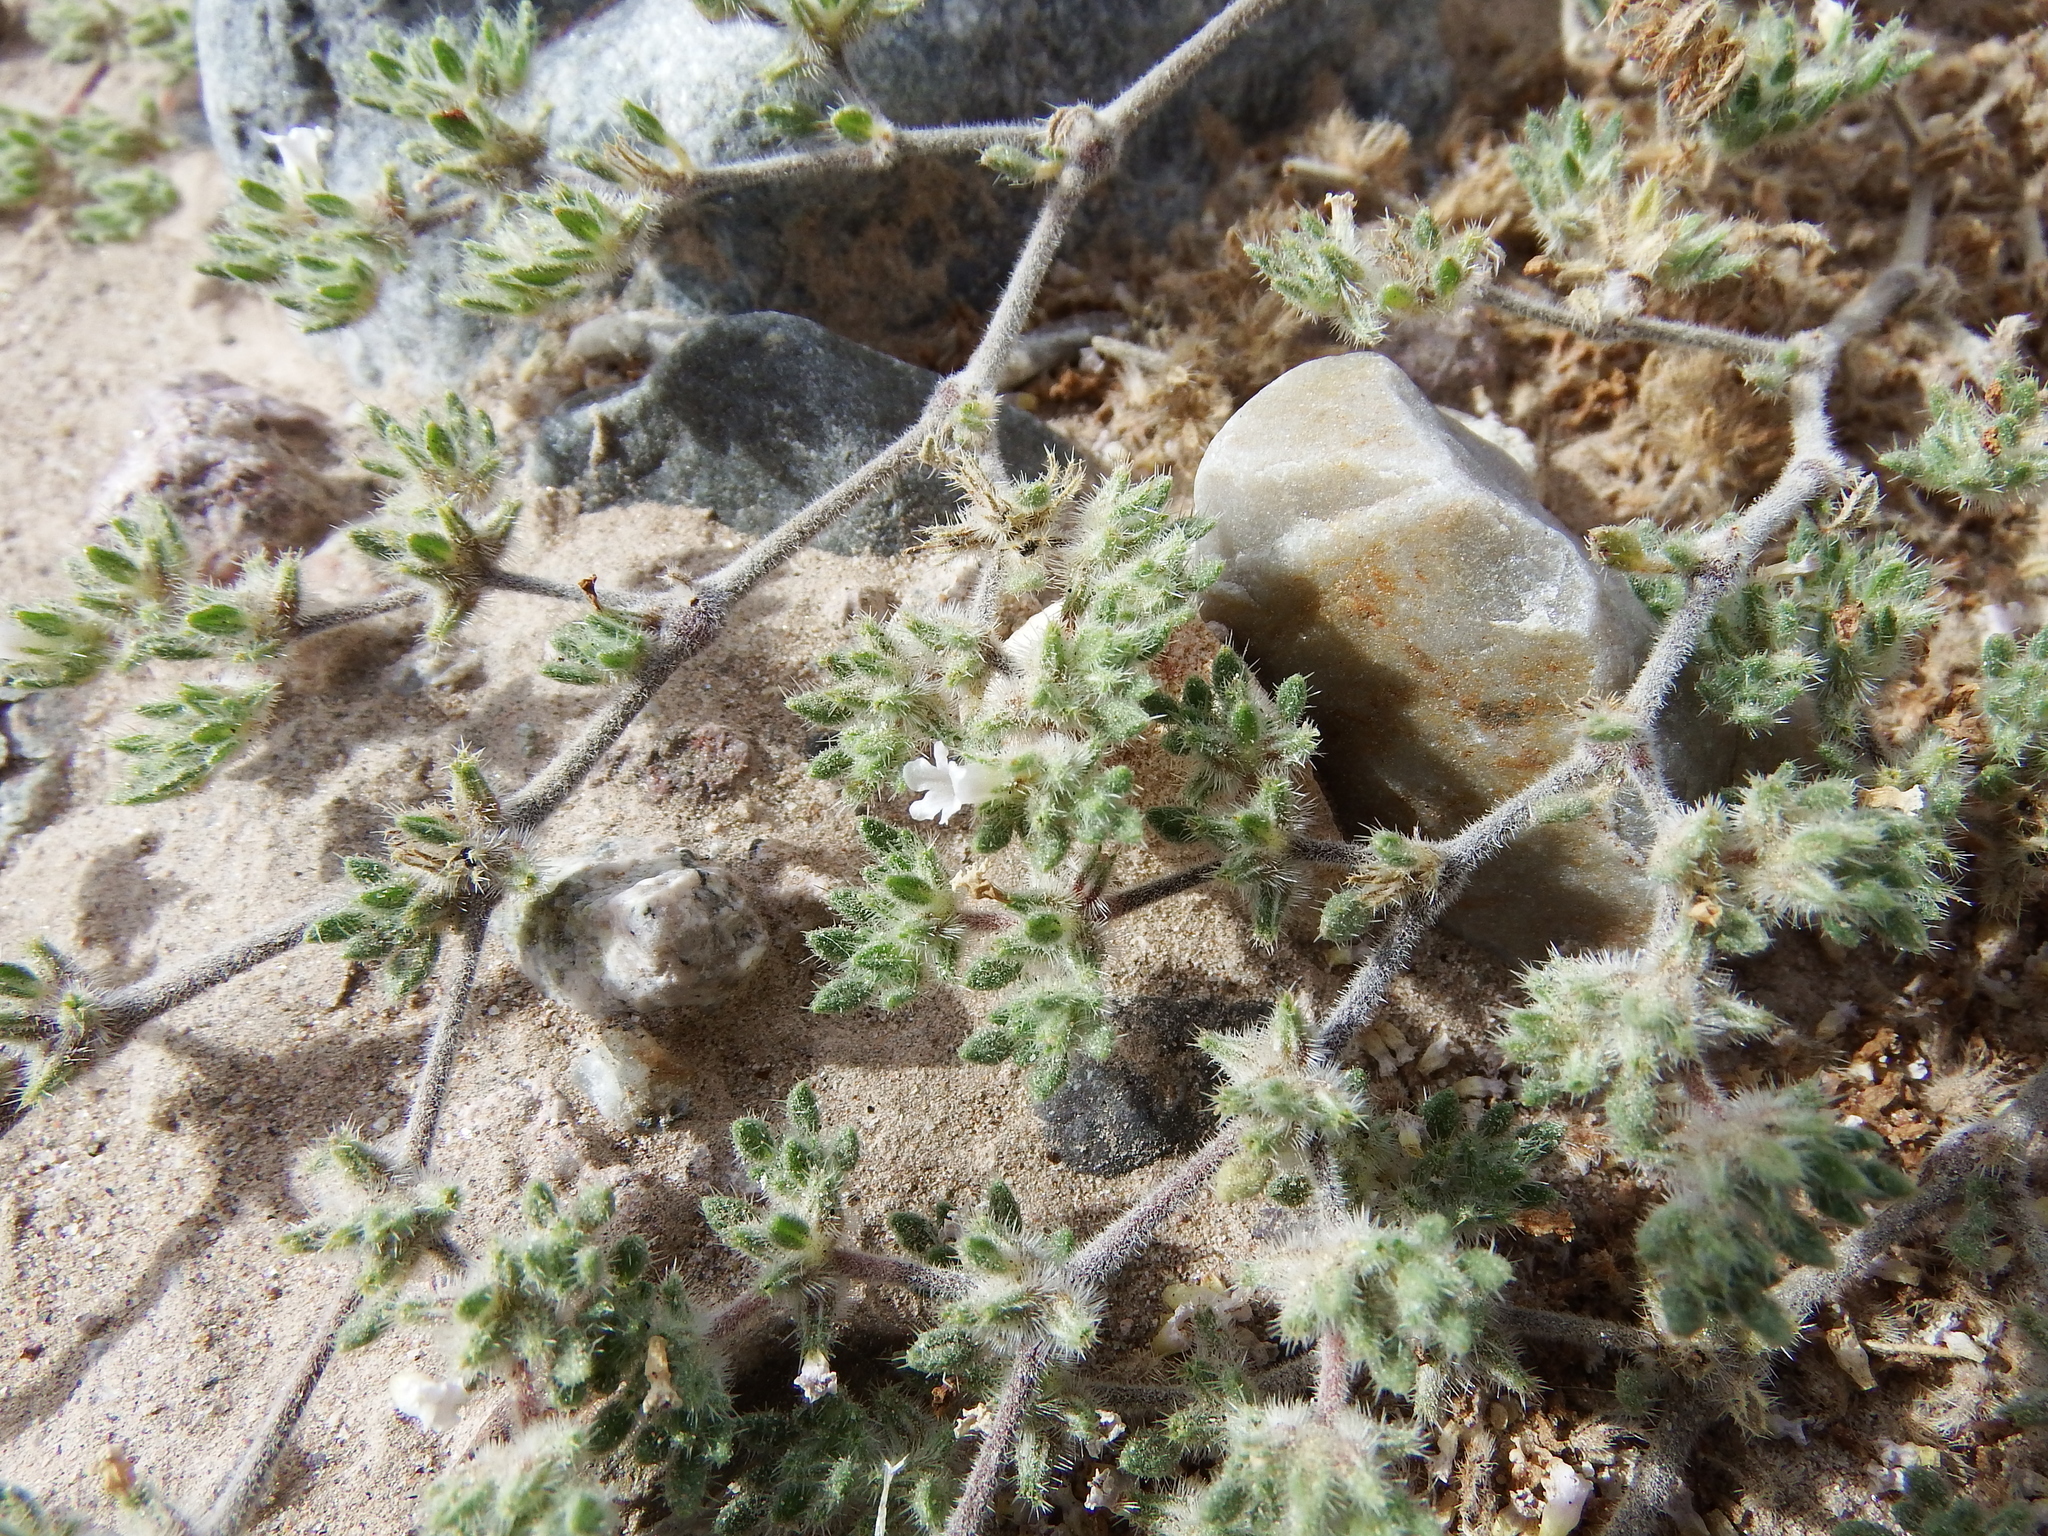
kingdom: Plantae
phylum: Tracheophyta
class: Magnoliopsida
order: Boraginales
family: Ehretiaceae
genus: Tiquilia
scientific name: Tiquilia paronychioides
